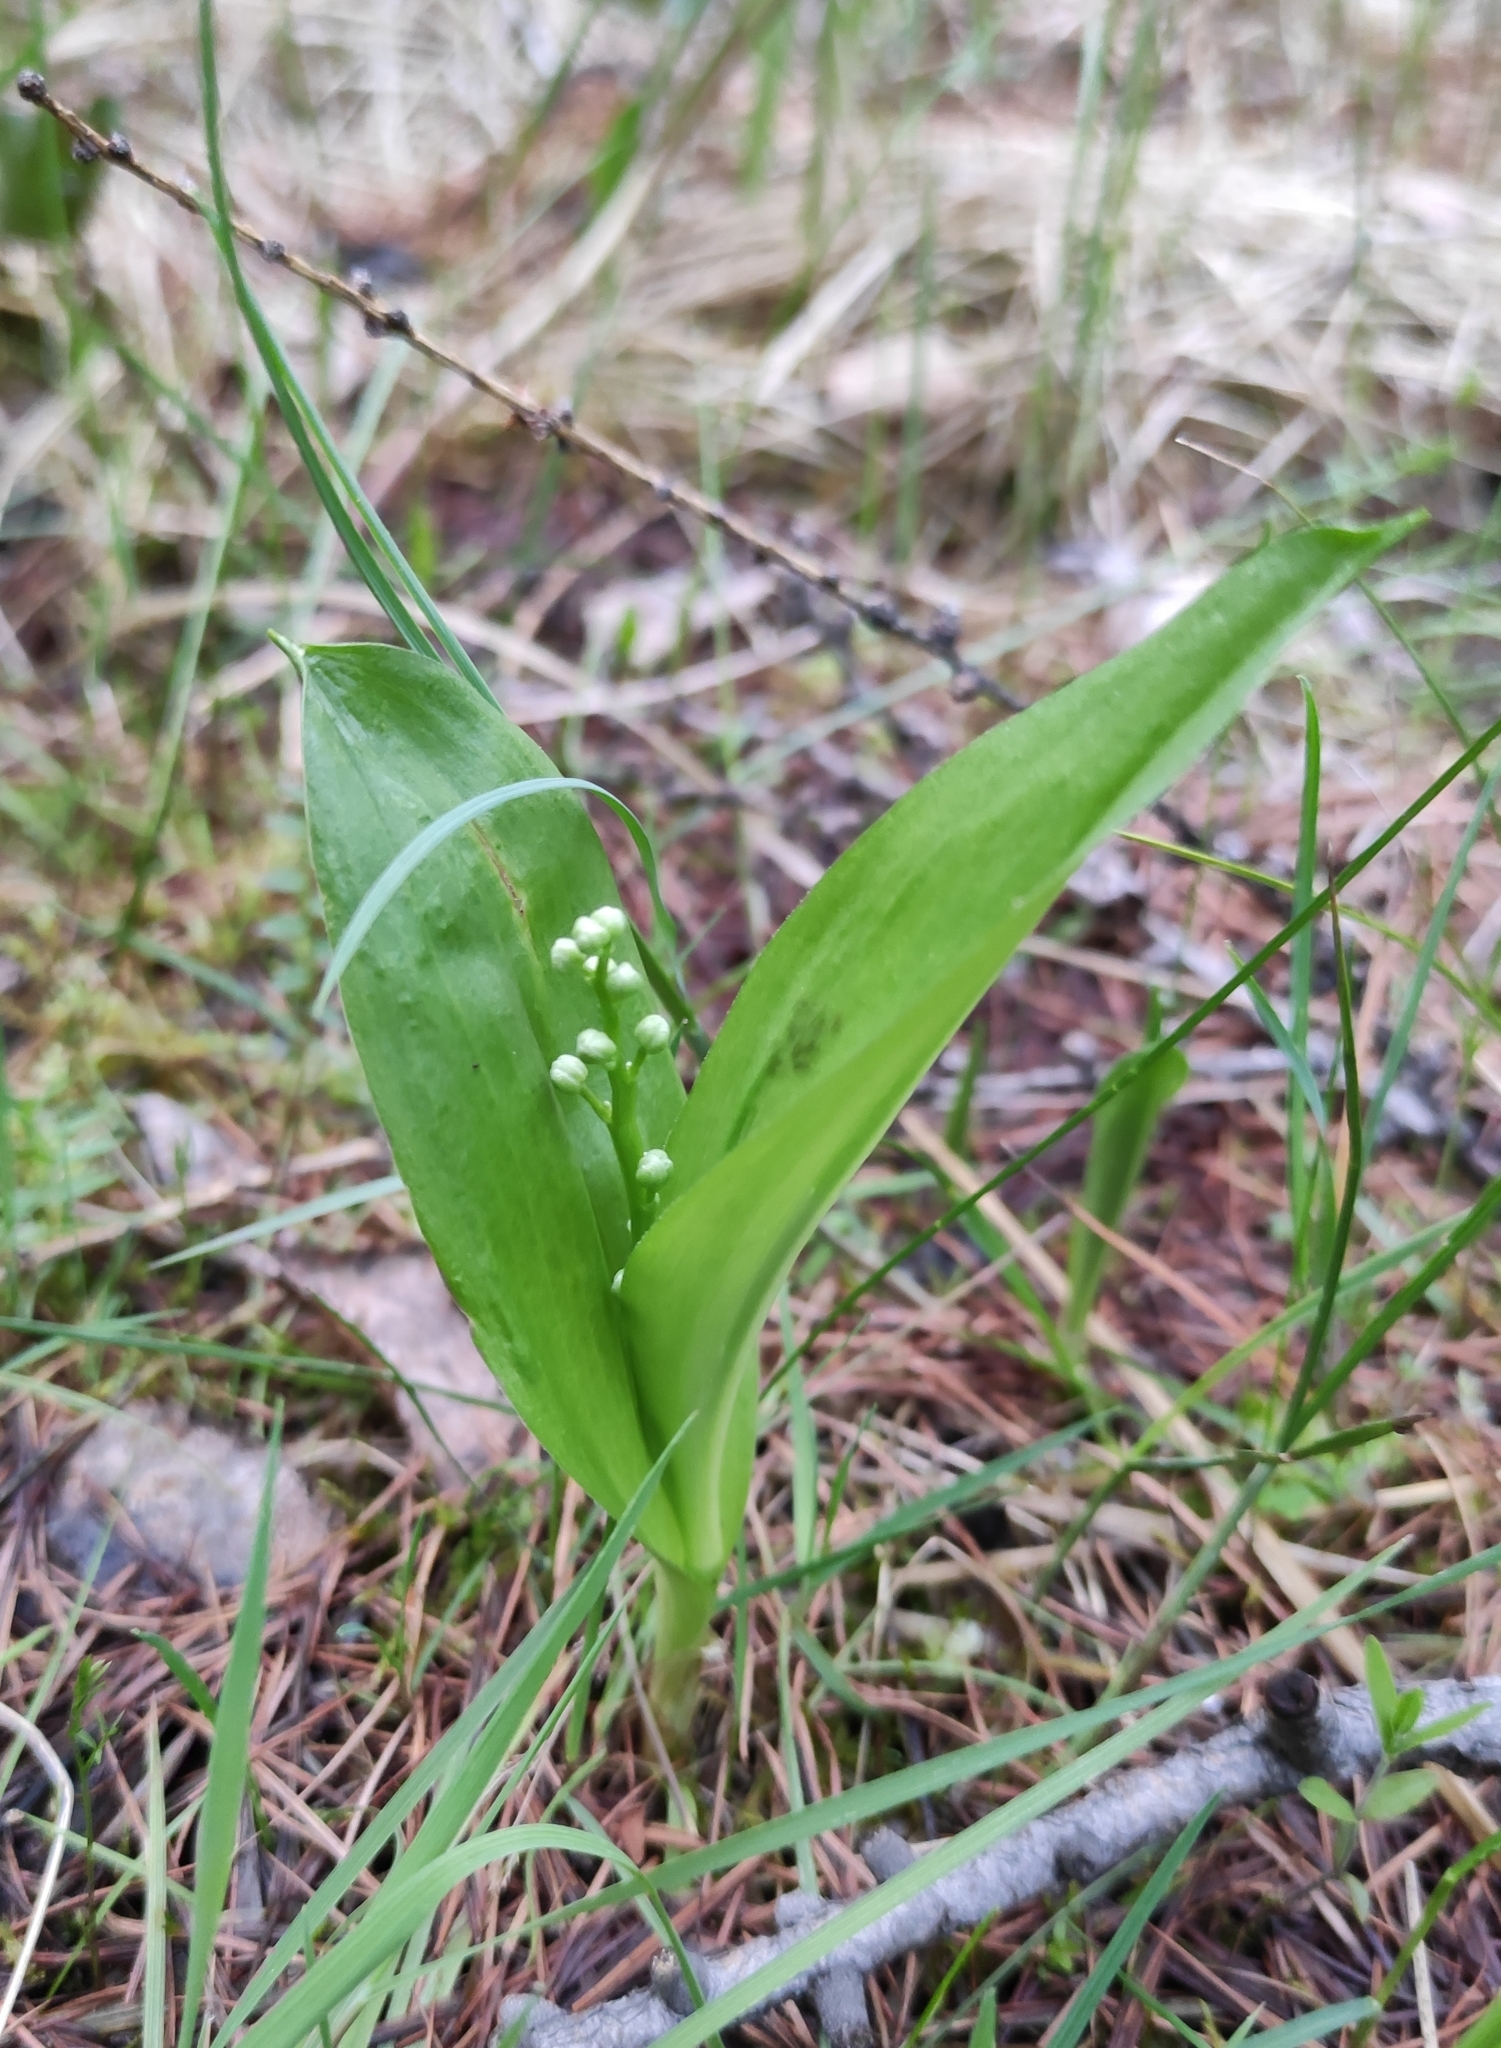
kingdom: Plantae
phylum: Tracheophyta
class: Liliopsida
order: Asparagales
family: Asparagaceae
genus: Maianthemum
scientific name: Maianthemum trifolium
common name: Swamp false solomon's seal
